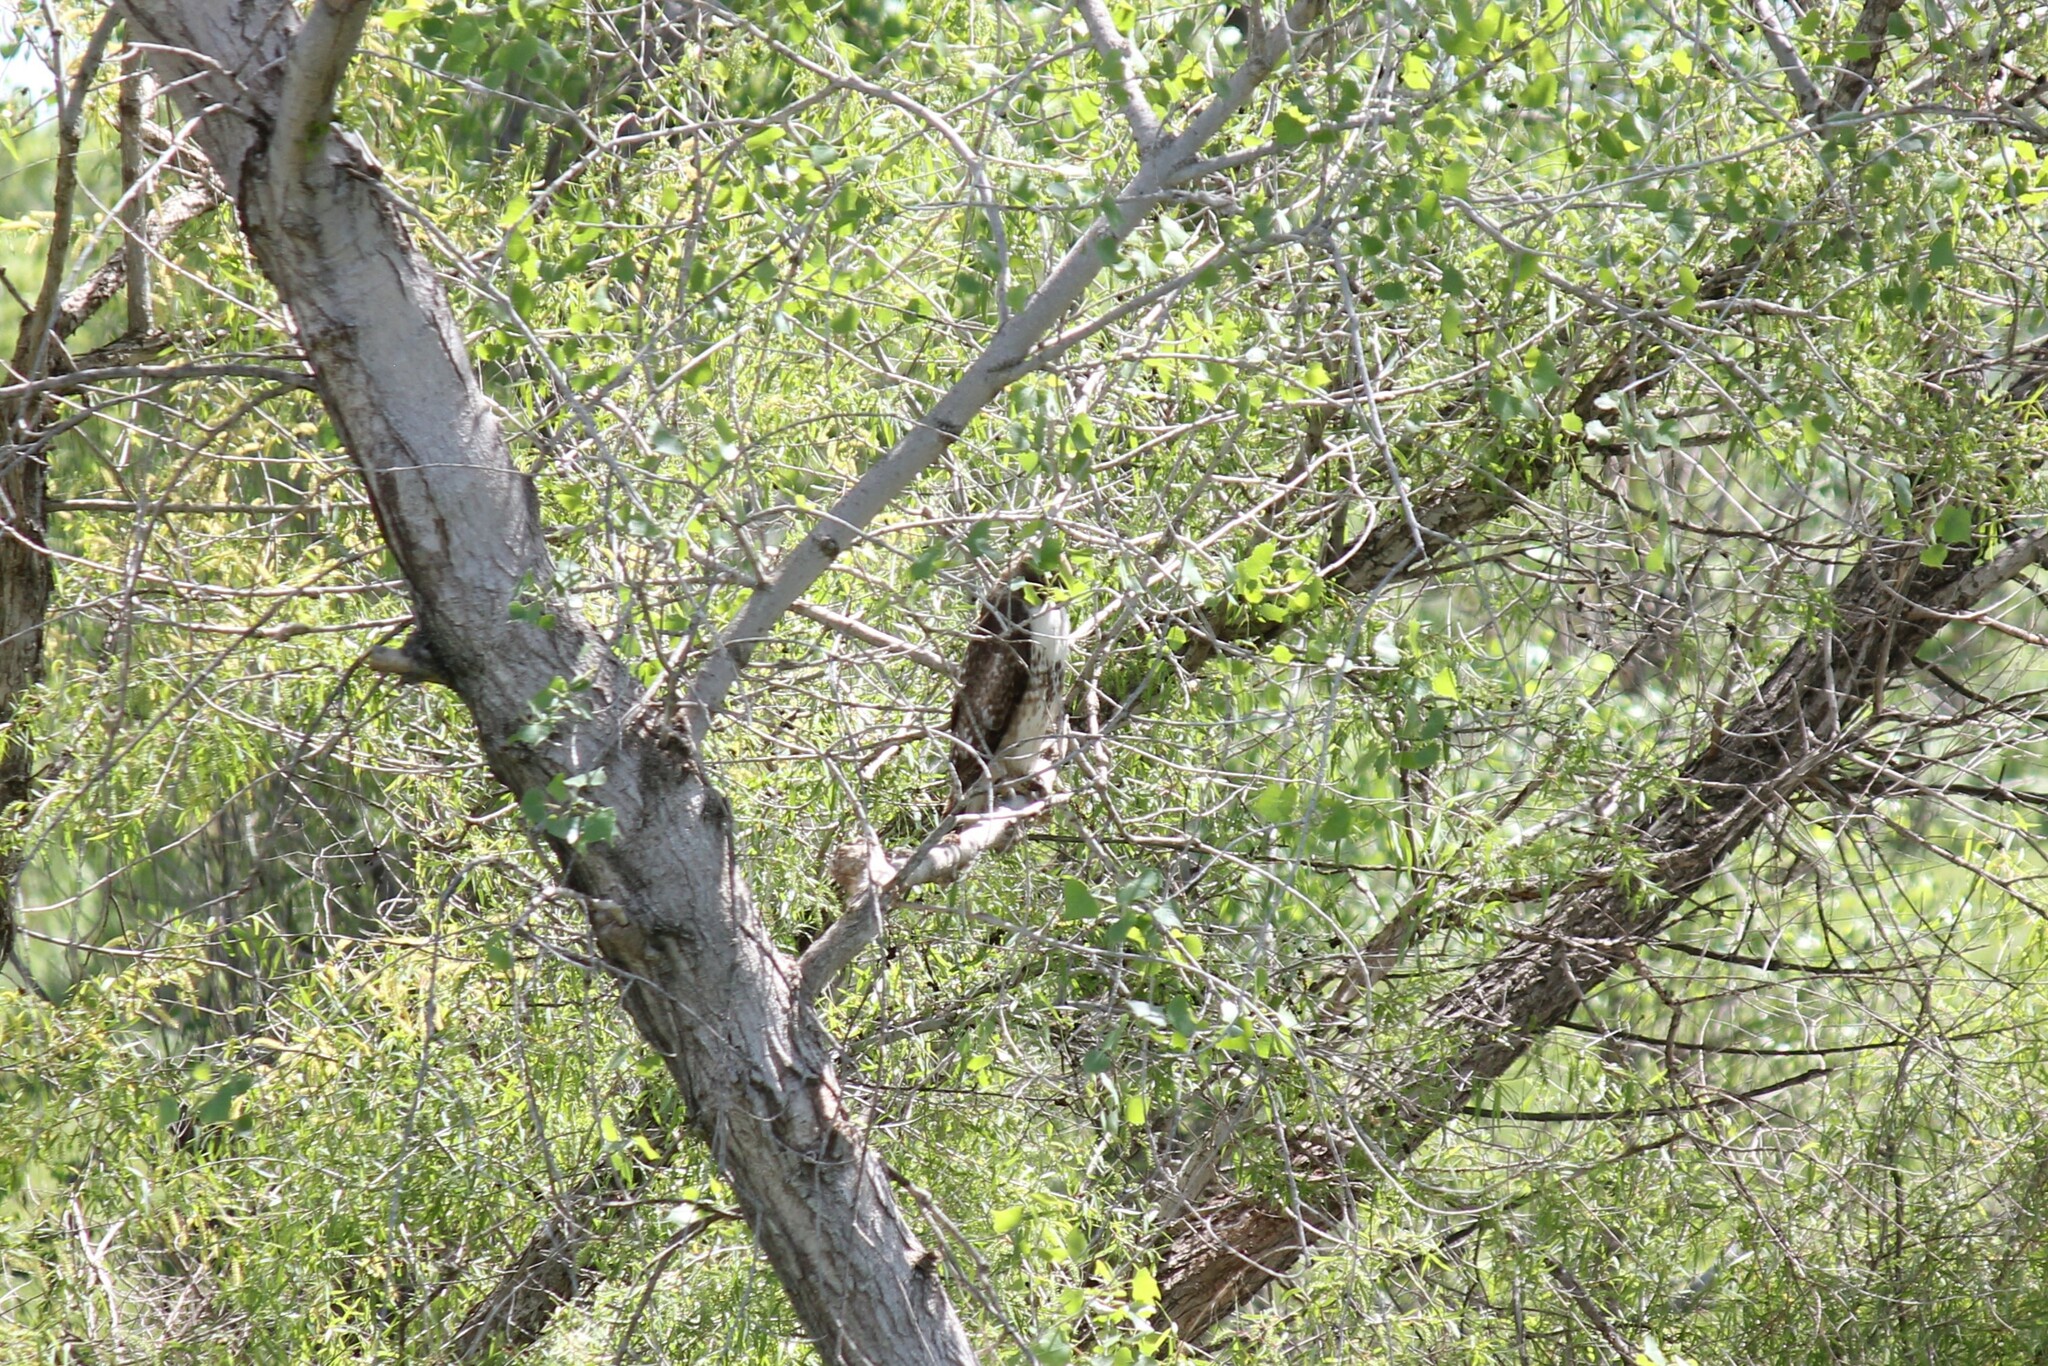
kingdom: Animalia
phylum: Chordata
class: Aves
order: Accipitriformes
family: Accipitridae
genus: Buteo
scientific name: Buteo jamaicensis
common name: Red-tailed hawk
